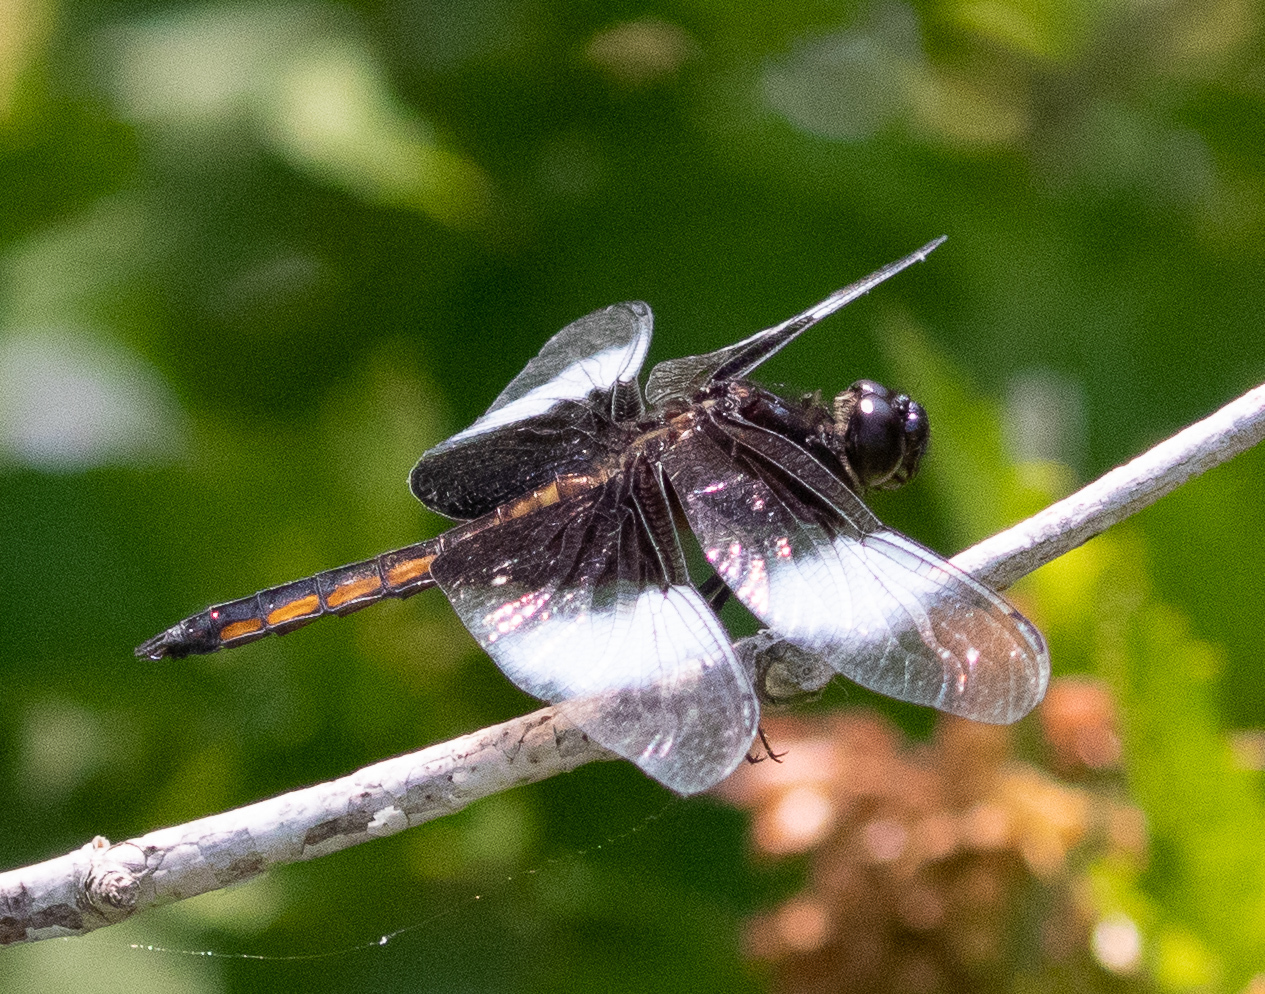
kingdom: Animalia
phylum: Arthropoda
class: Insecta
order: Odonata
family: Libellulidae
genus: Libellula
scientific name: Libellula luctuosa
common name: Widow skimmer
